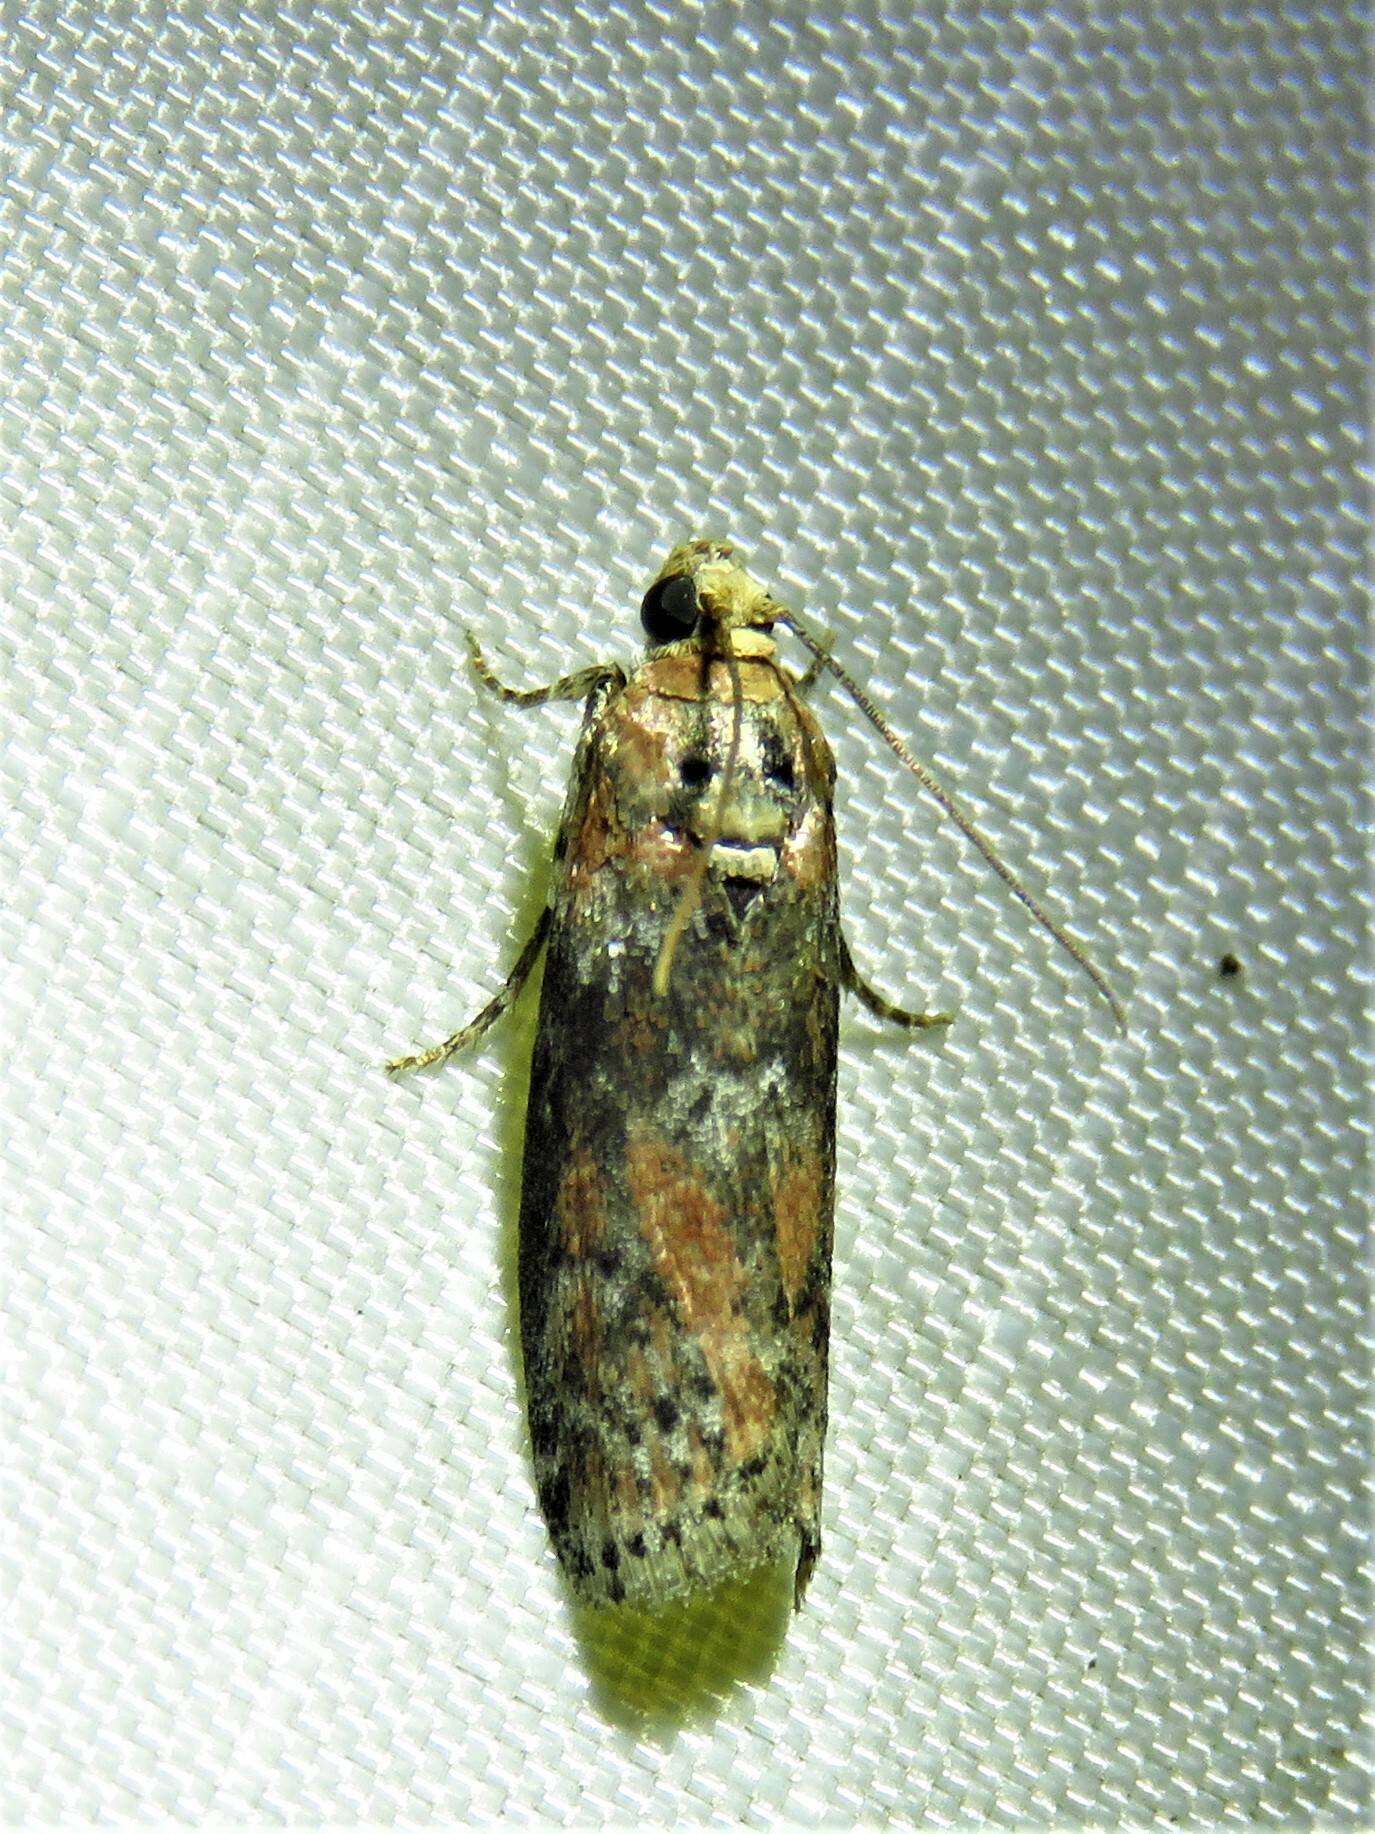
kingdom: Animalia
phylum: Arthropoda
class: Insecta
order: Lepidoptera
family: Pyralidae
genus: Sciota
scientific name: Sciota celtidella
